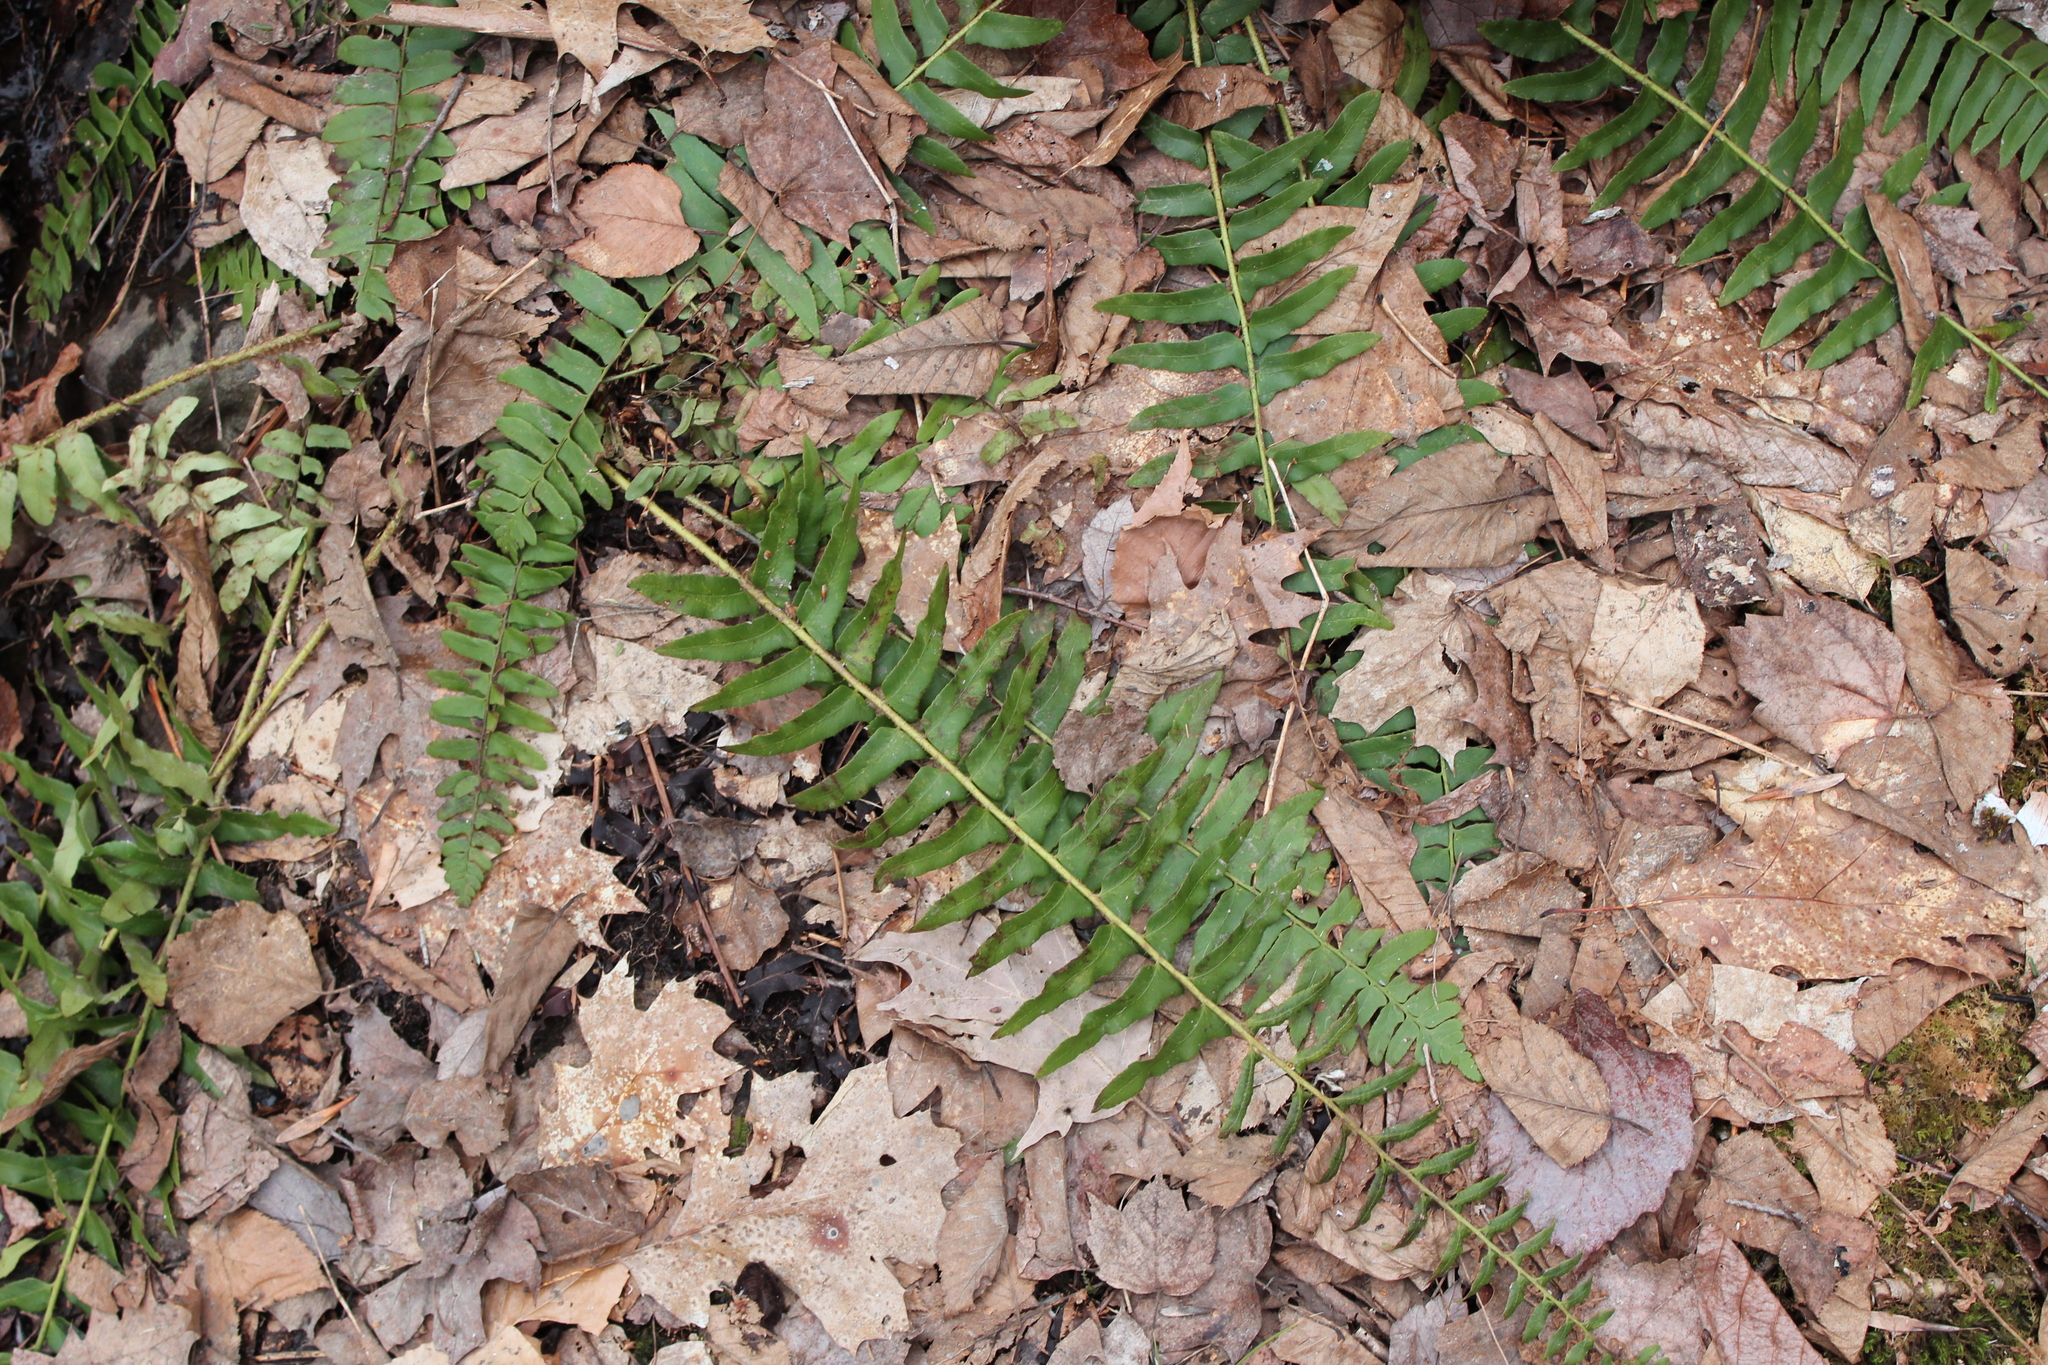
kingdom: Plantae
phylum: Tracheophyta
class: Polypodiopsida
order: Polypodiales
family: Dryopteridaceae
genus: Polystichum
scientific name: Polystichum acrostichoides
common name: Christmas fern
